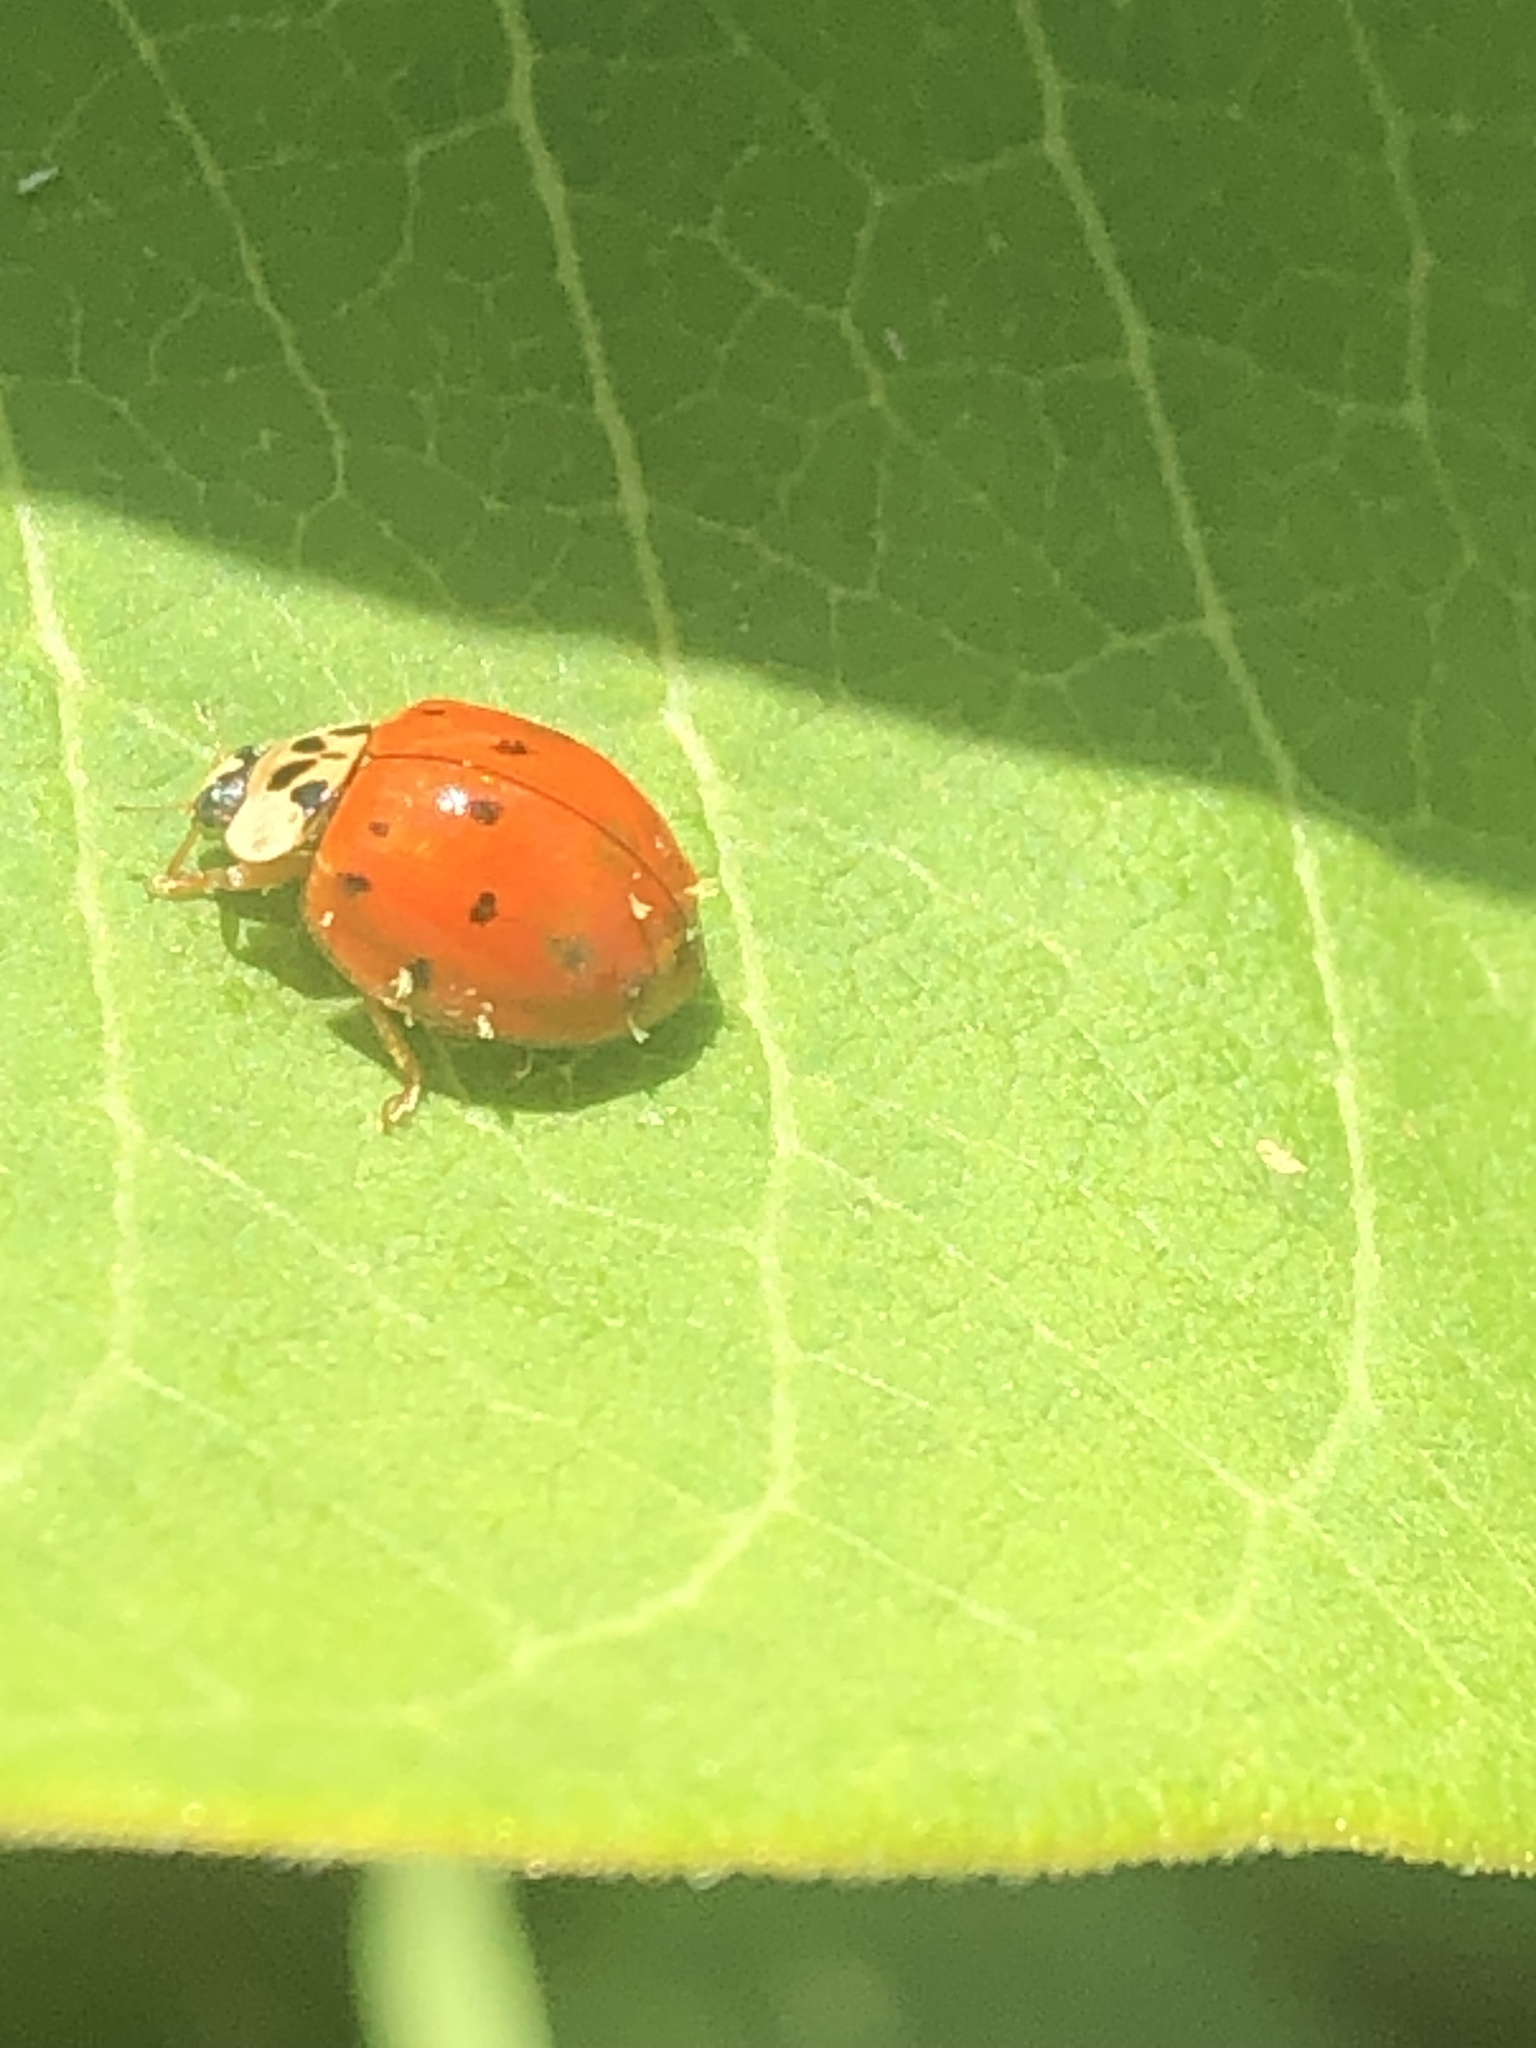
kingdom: Animalia
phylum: Arthropoda
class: Insecta
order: Coleoptera
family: Coccinellidae
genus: Harmonia
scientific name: Harmonia axyridis
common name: Harlequin ladybird
